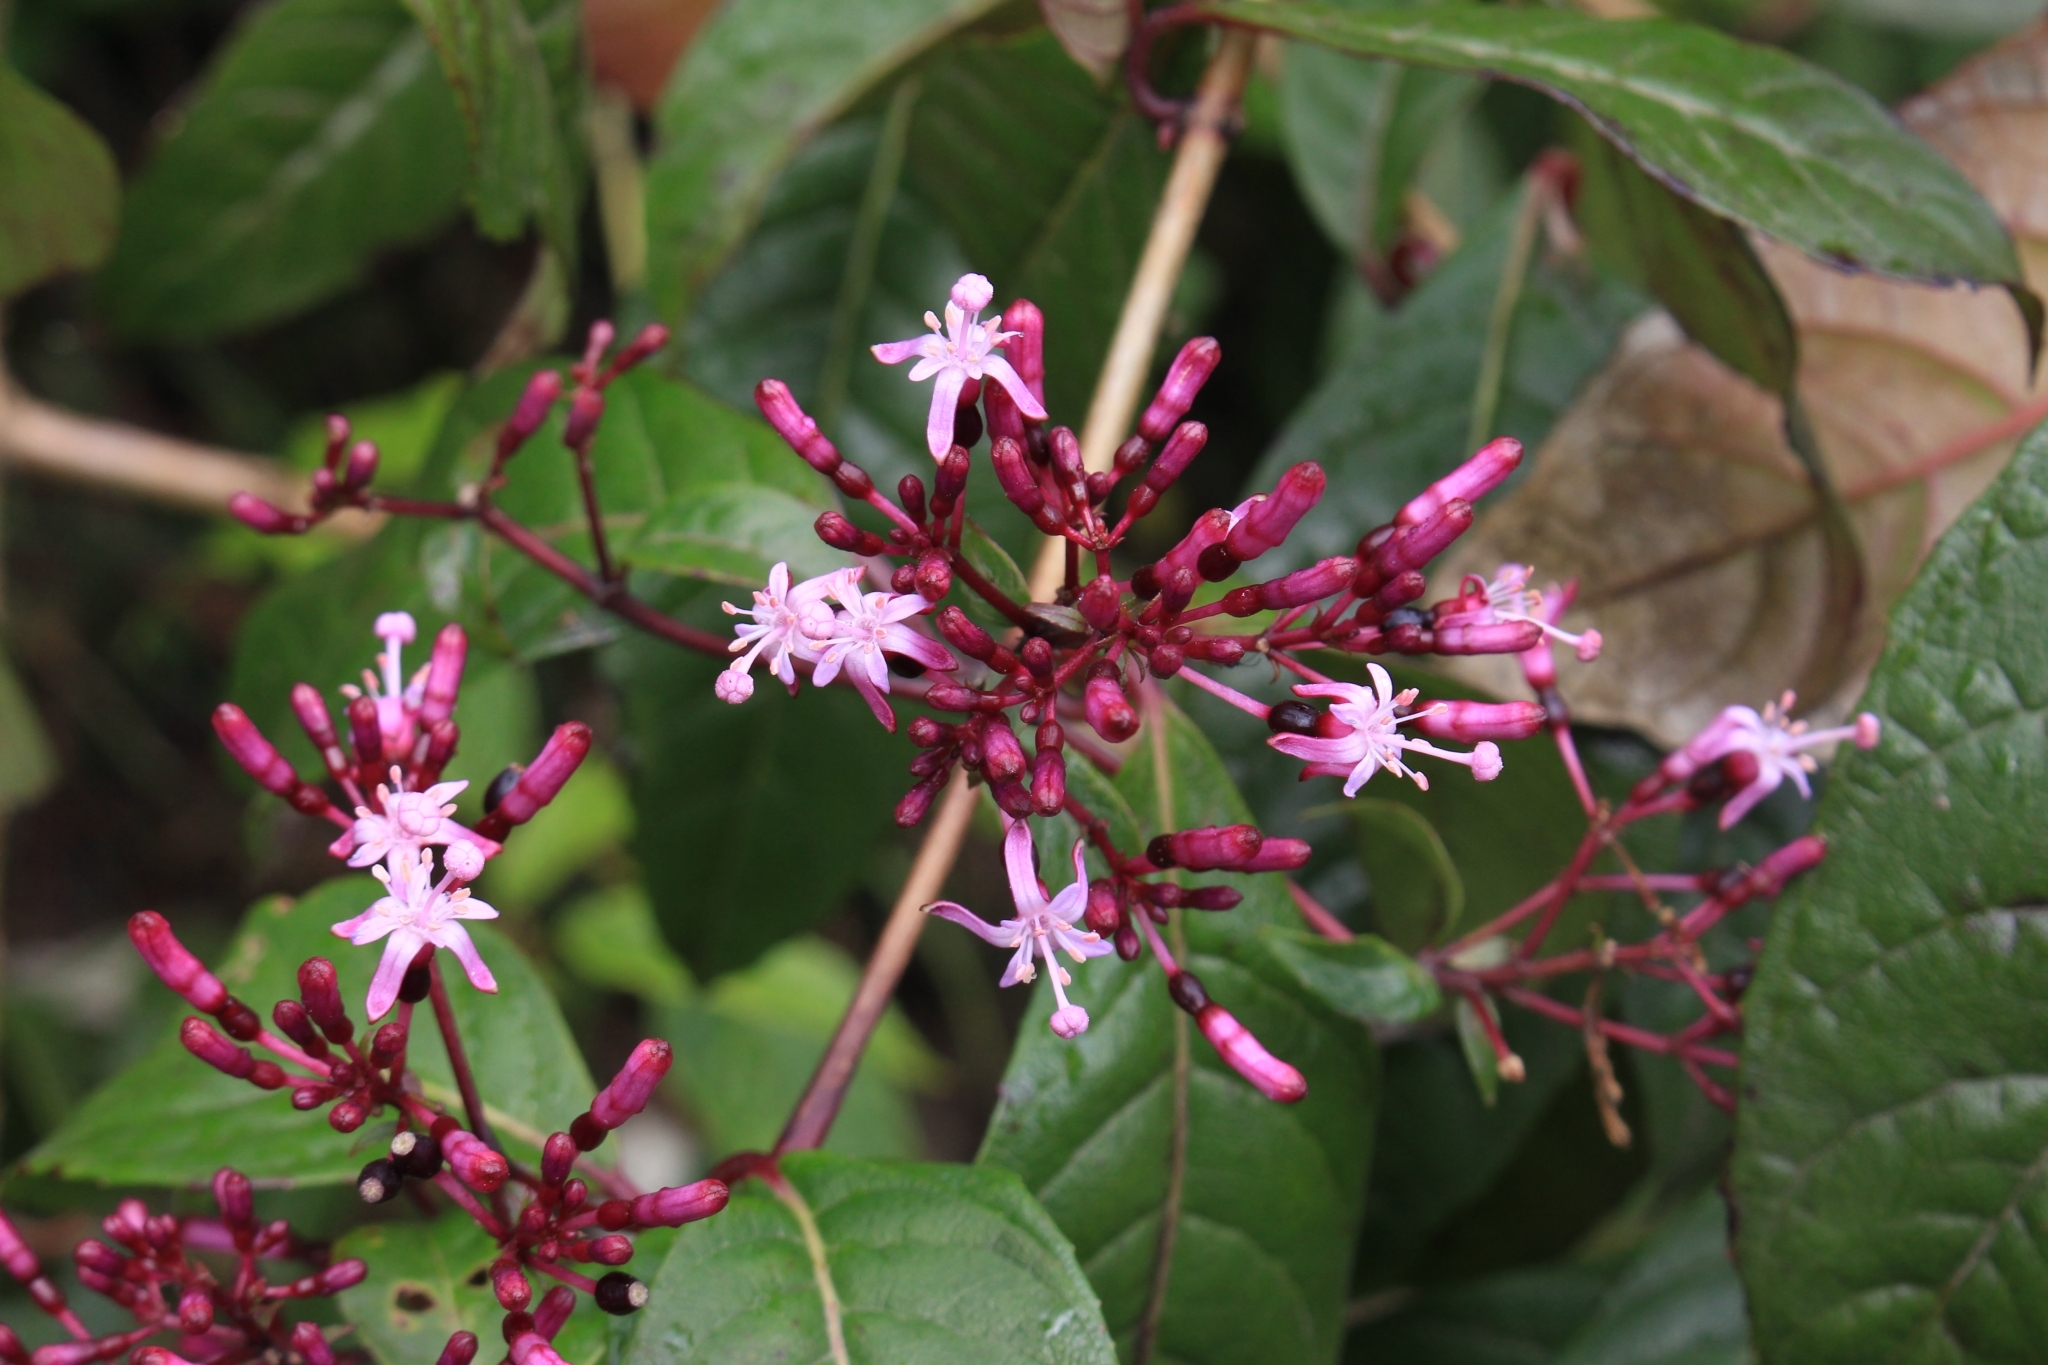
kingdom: Plantae
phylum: Tracheophyta
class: Magnoliopsida
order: Myrtales
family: Onagraceae
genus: Fuchsia
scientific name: Fuchsia paniculata
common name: Shrubby fuchsia
